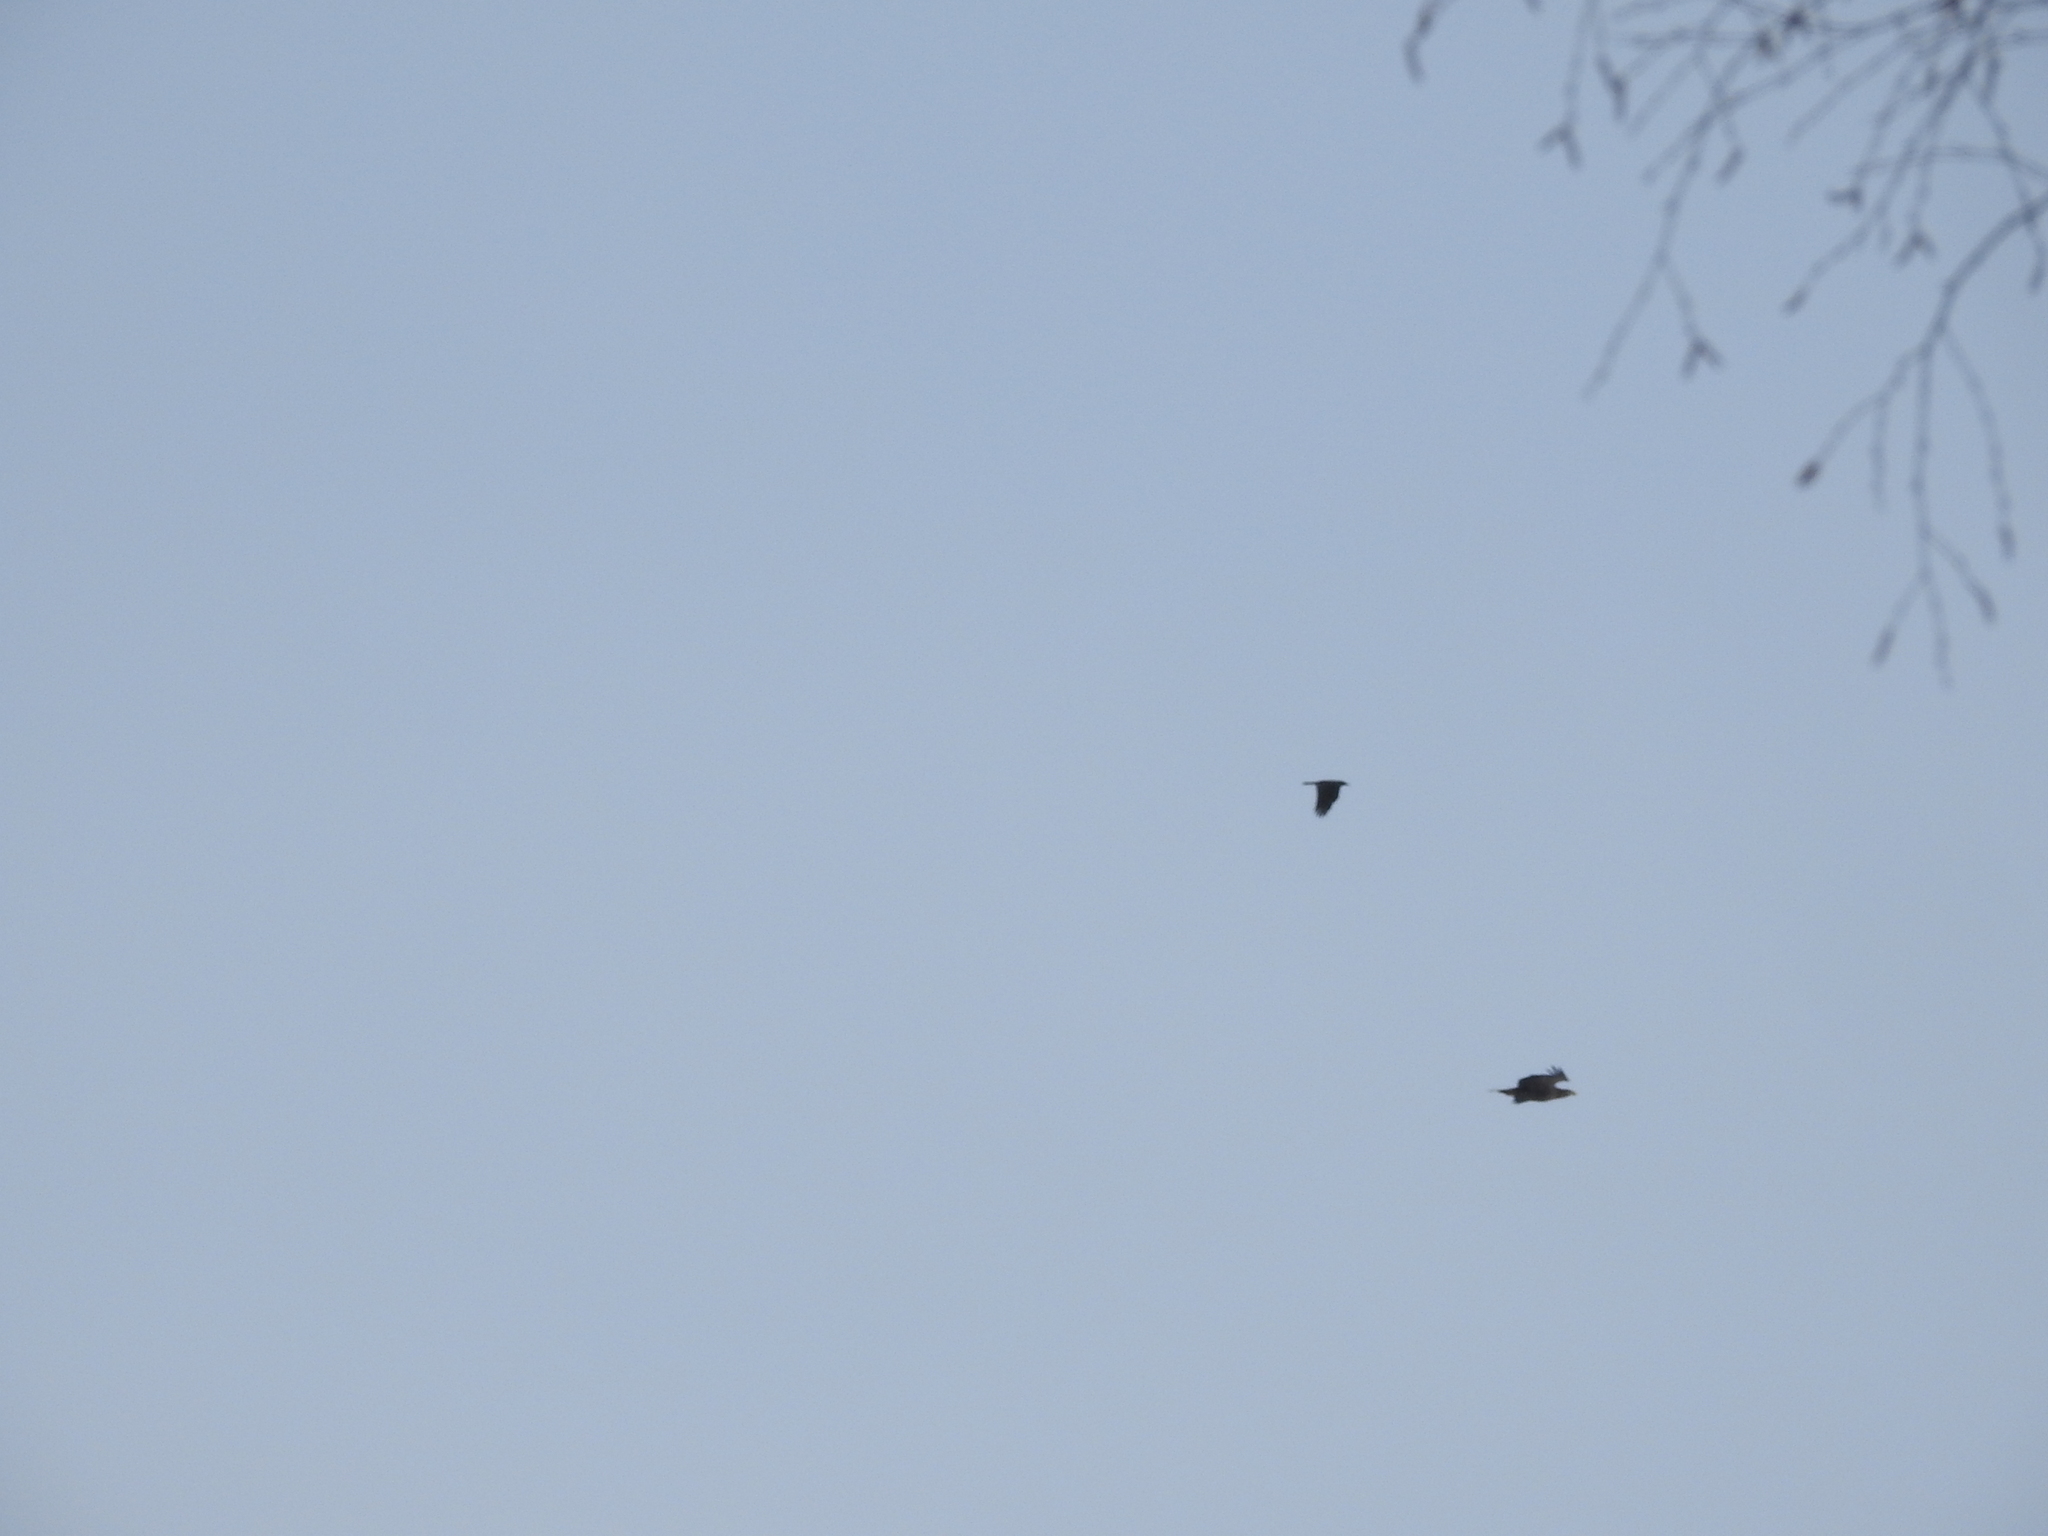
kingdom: Animalia
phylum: Chordata
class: Aves
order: Accipitriformes
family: Accipitridae
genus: Haliaeetus
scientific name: Haliaeetus albicilla
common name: White-tailed eagle
